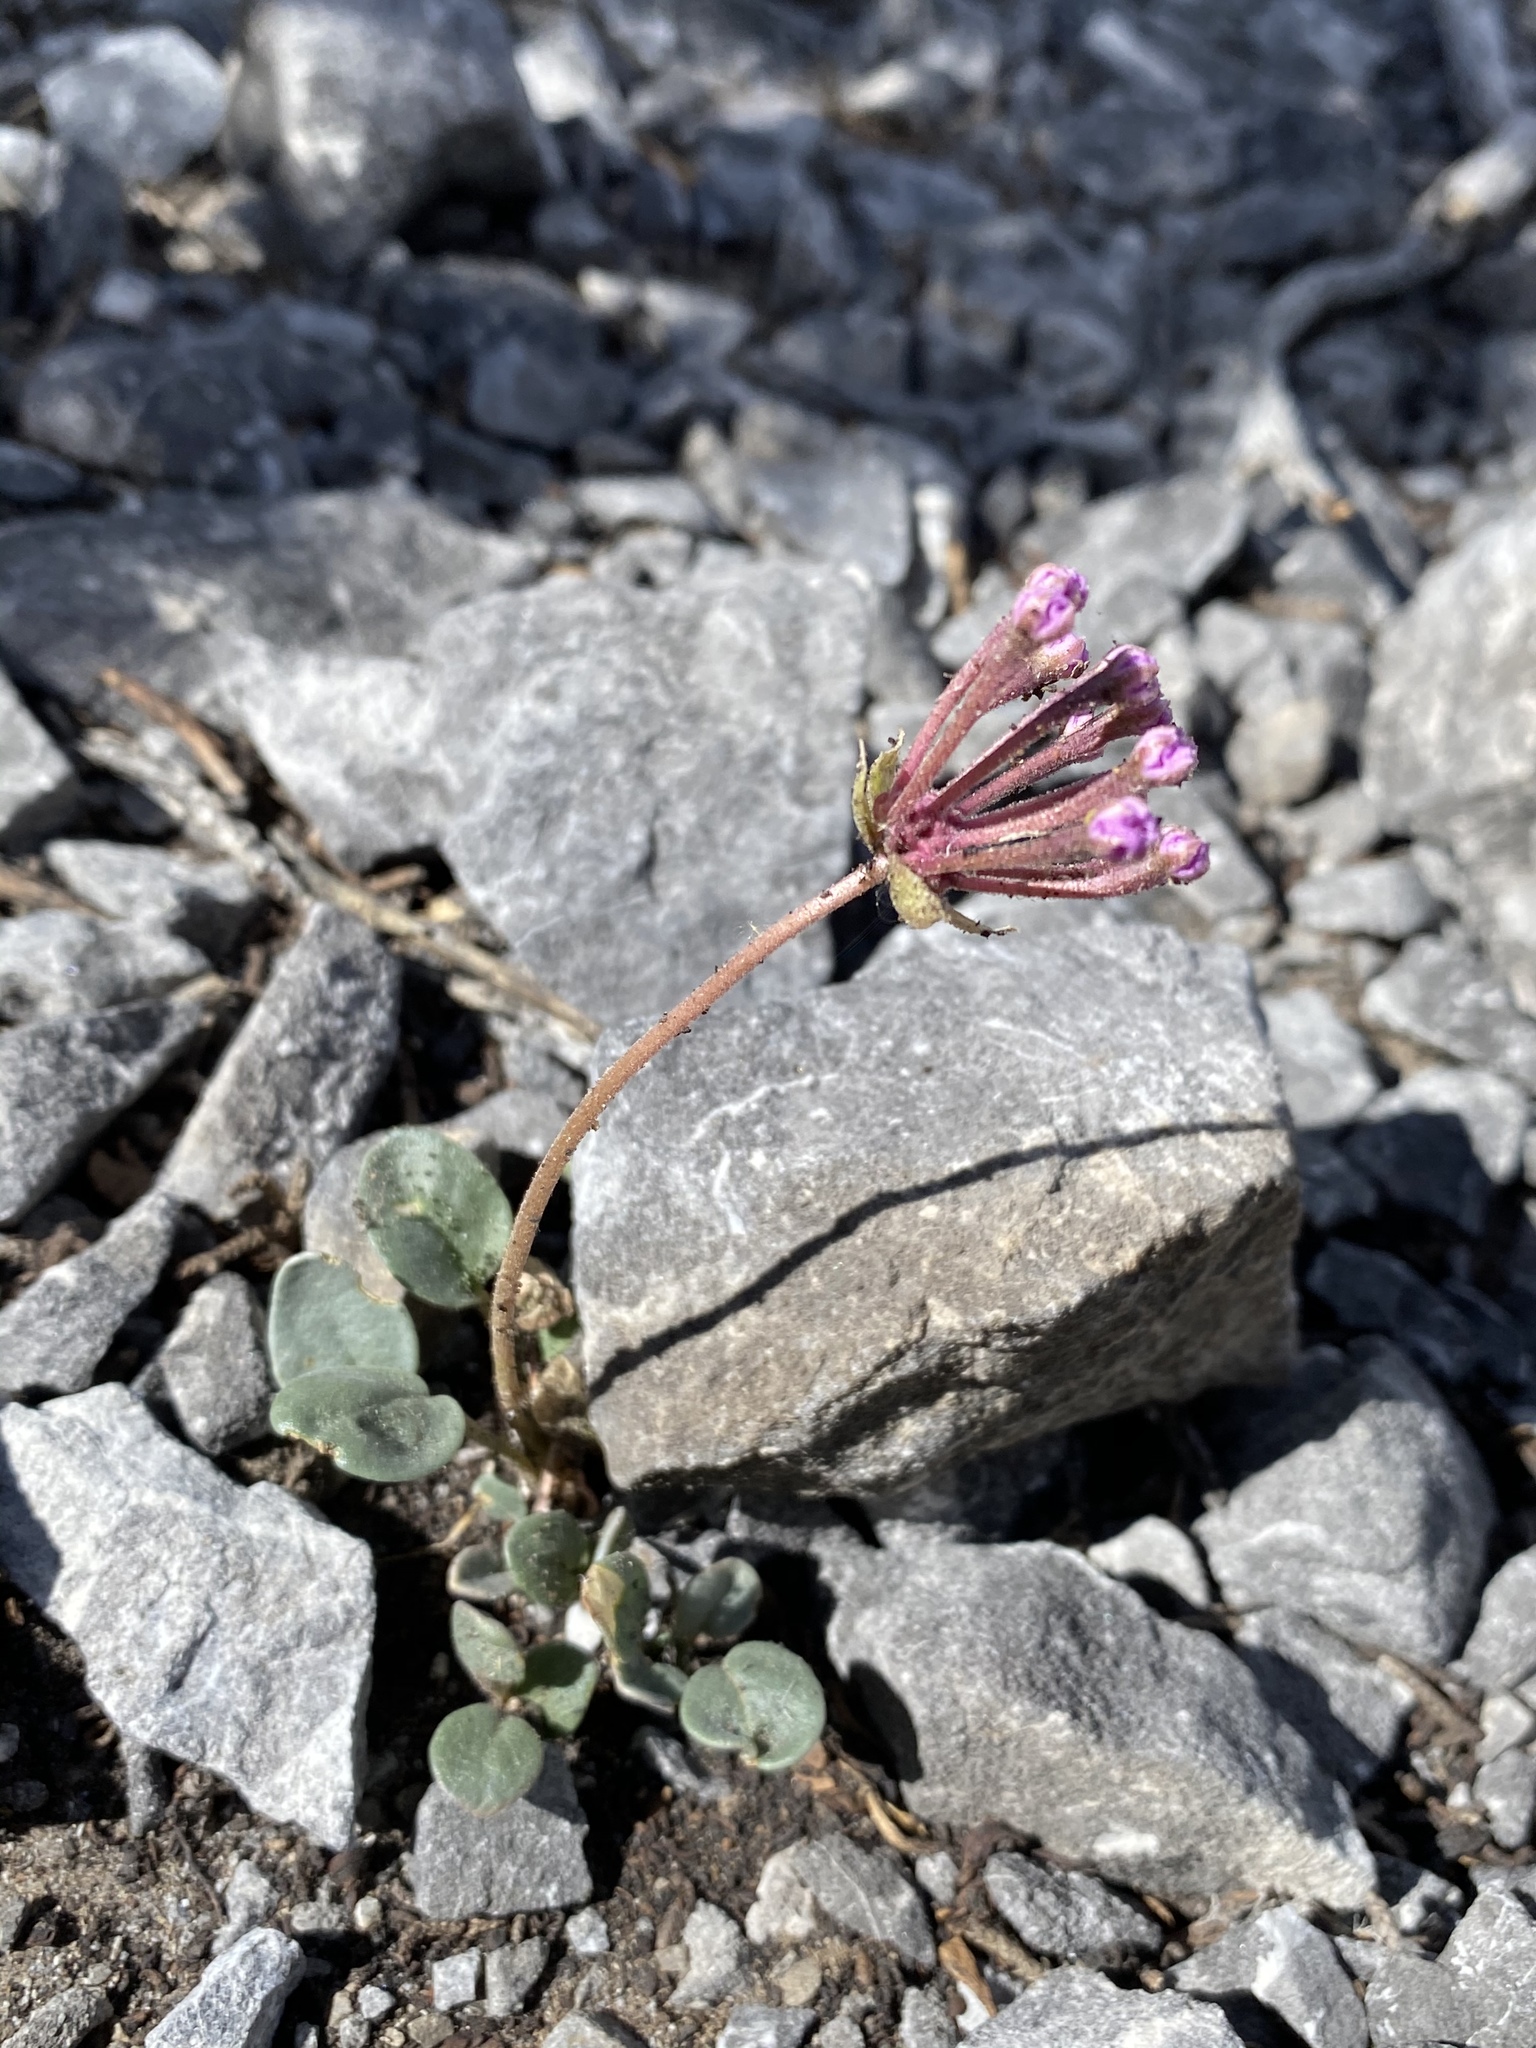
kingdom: Plantae
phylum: Tracheophyta
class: Magnoliopsida
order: Caryophyllales
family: Nyctaginaceae
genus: Abronia
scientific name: Abronia nana
